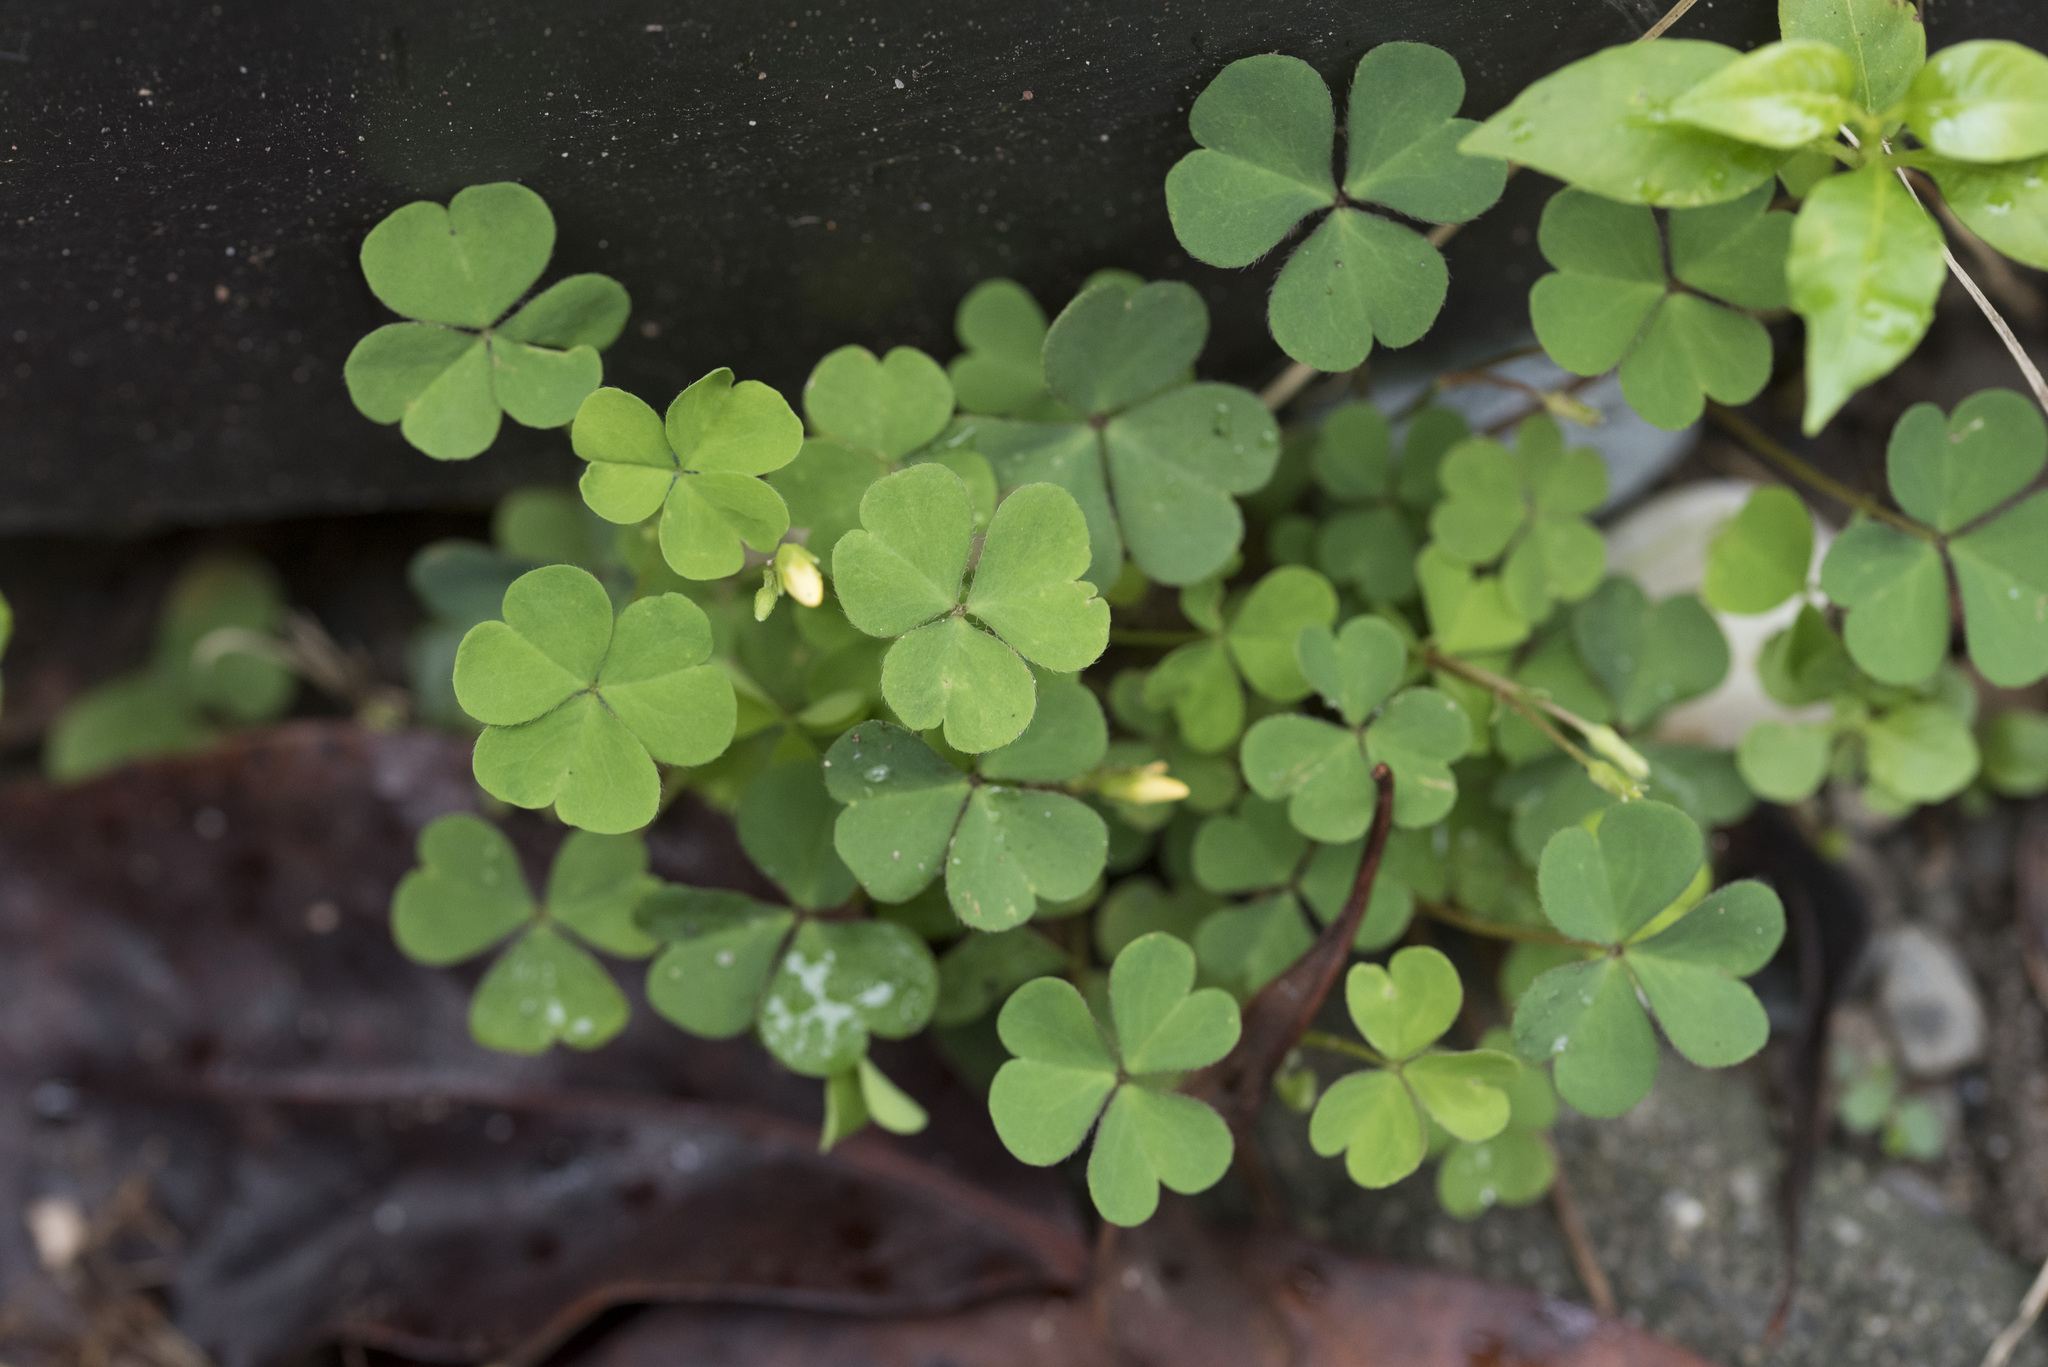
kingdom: Plantae
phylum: Tracheophyta
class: Magnoliopsida
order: Oxalidales
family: Oxalidaceae
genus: Oxalis
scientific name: Oxalis corniculata
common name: Procumbent yellow-sorrel
